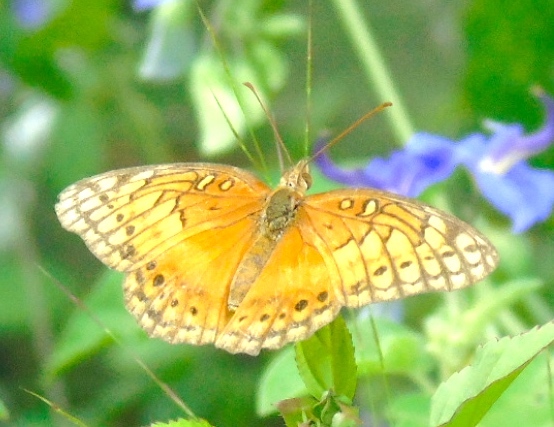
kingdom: Animalia
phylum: Arthropoda
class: Insecta
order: Lepidoptera
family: Nymphalidae
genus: Euptoieta
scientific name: Euptoieta hegesia
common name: Mexican fritillary
